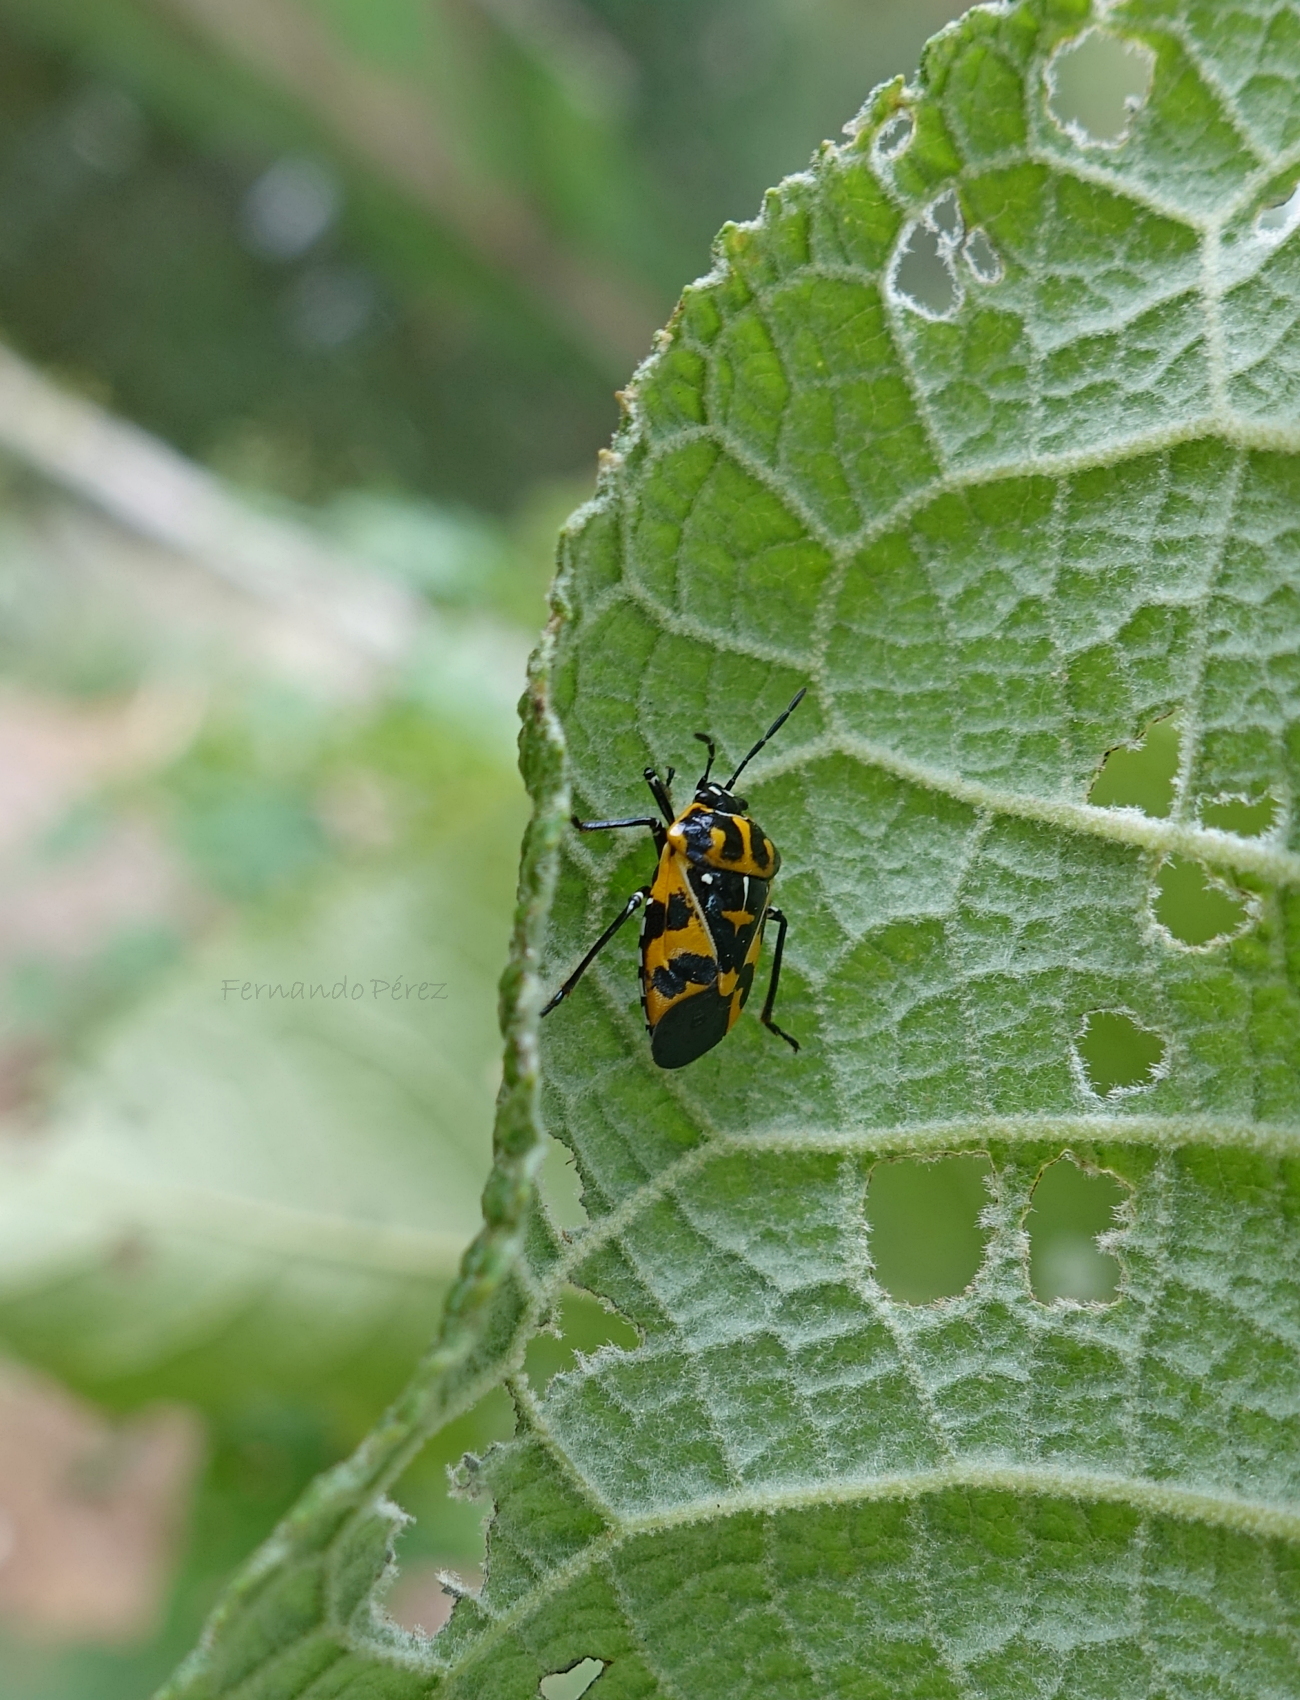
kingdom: Animalia
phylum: Arthropoda
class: Insecta
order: Hemiptera
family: Pentatomidae
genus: Murgantia
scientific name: Murgantia histrionica
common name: Harlequin bug
